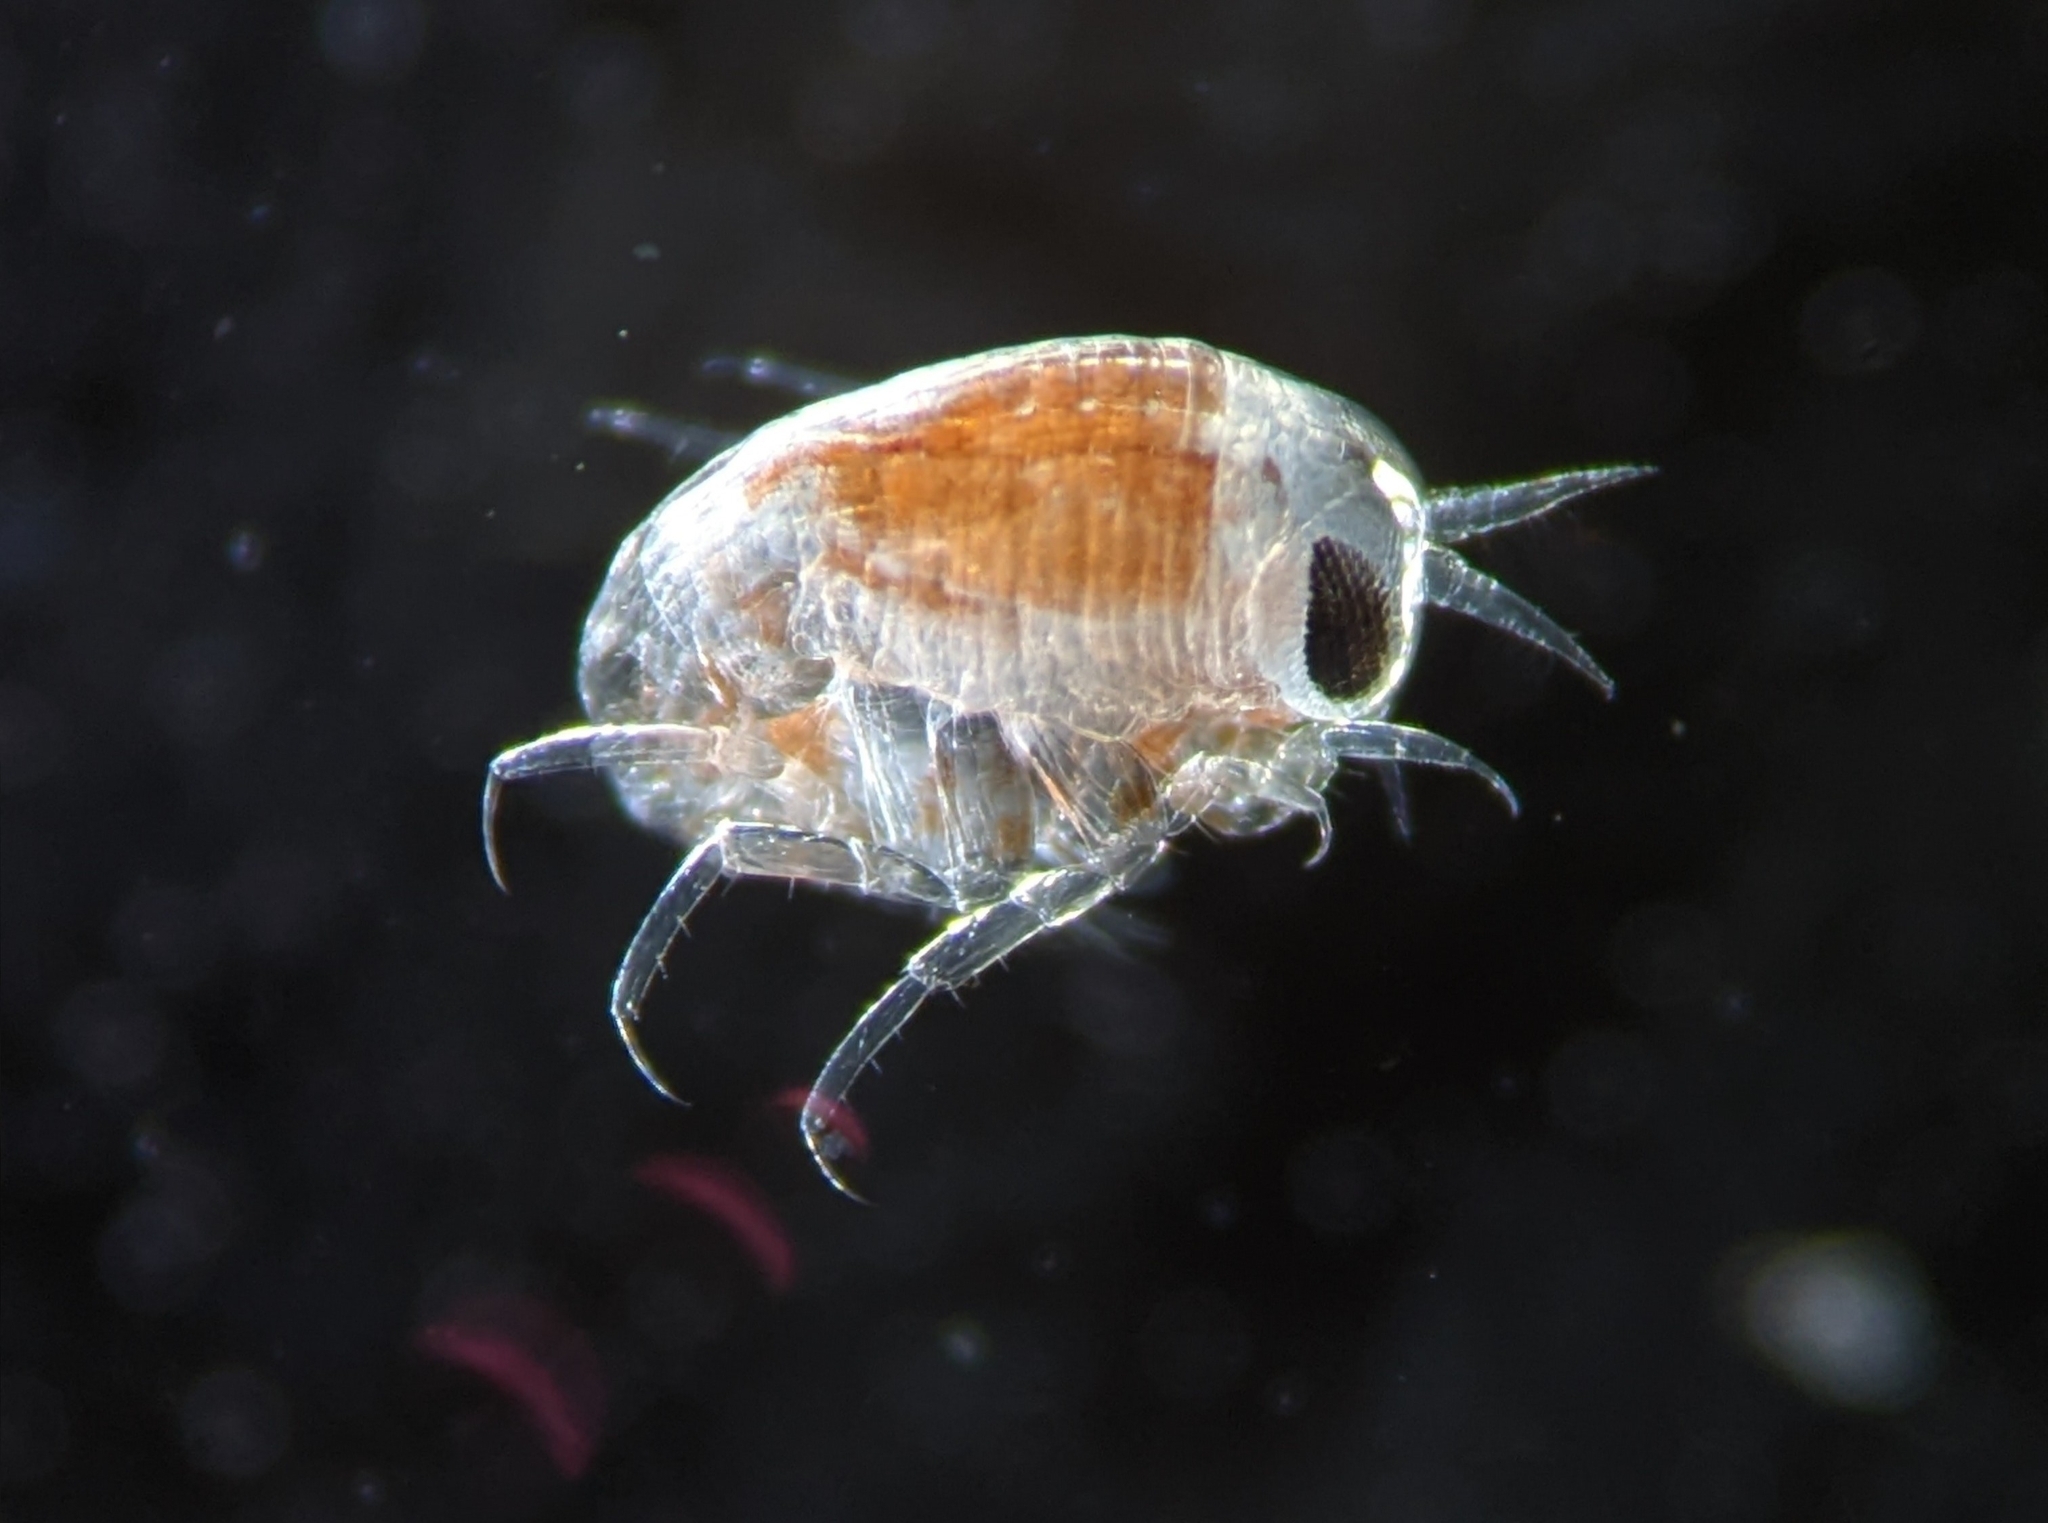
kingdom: Animalia
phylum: Arthropoda
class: Malacostraca
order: Amphipoda
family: Hyperiidae
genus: Themisto
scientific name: Themisto abyssorum
